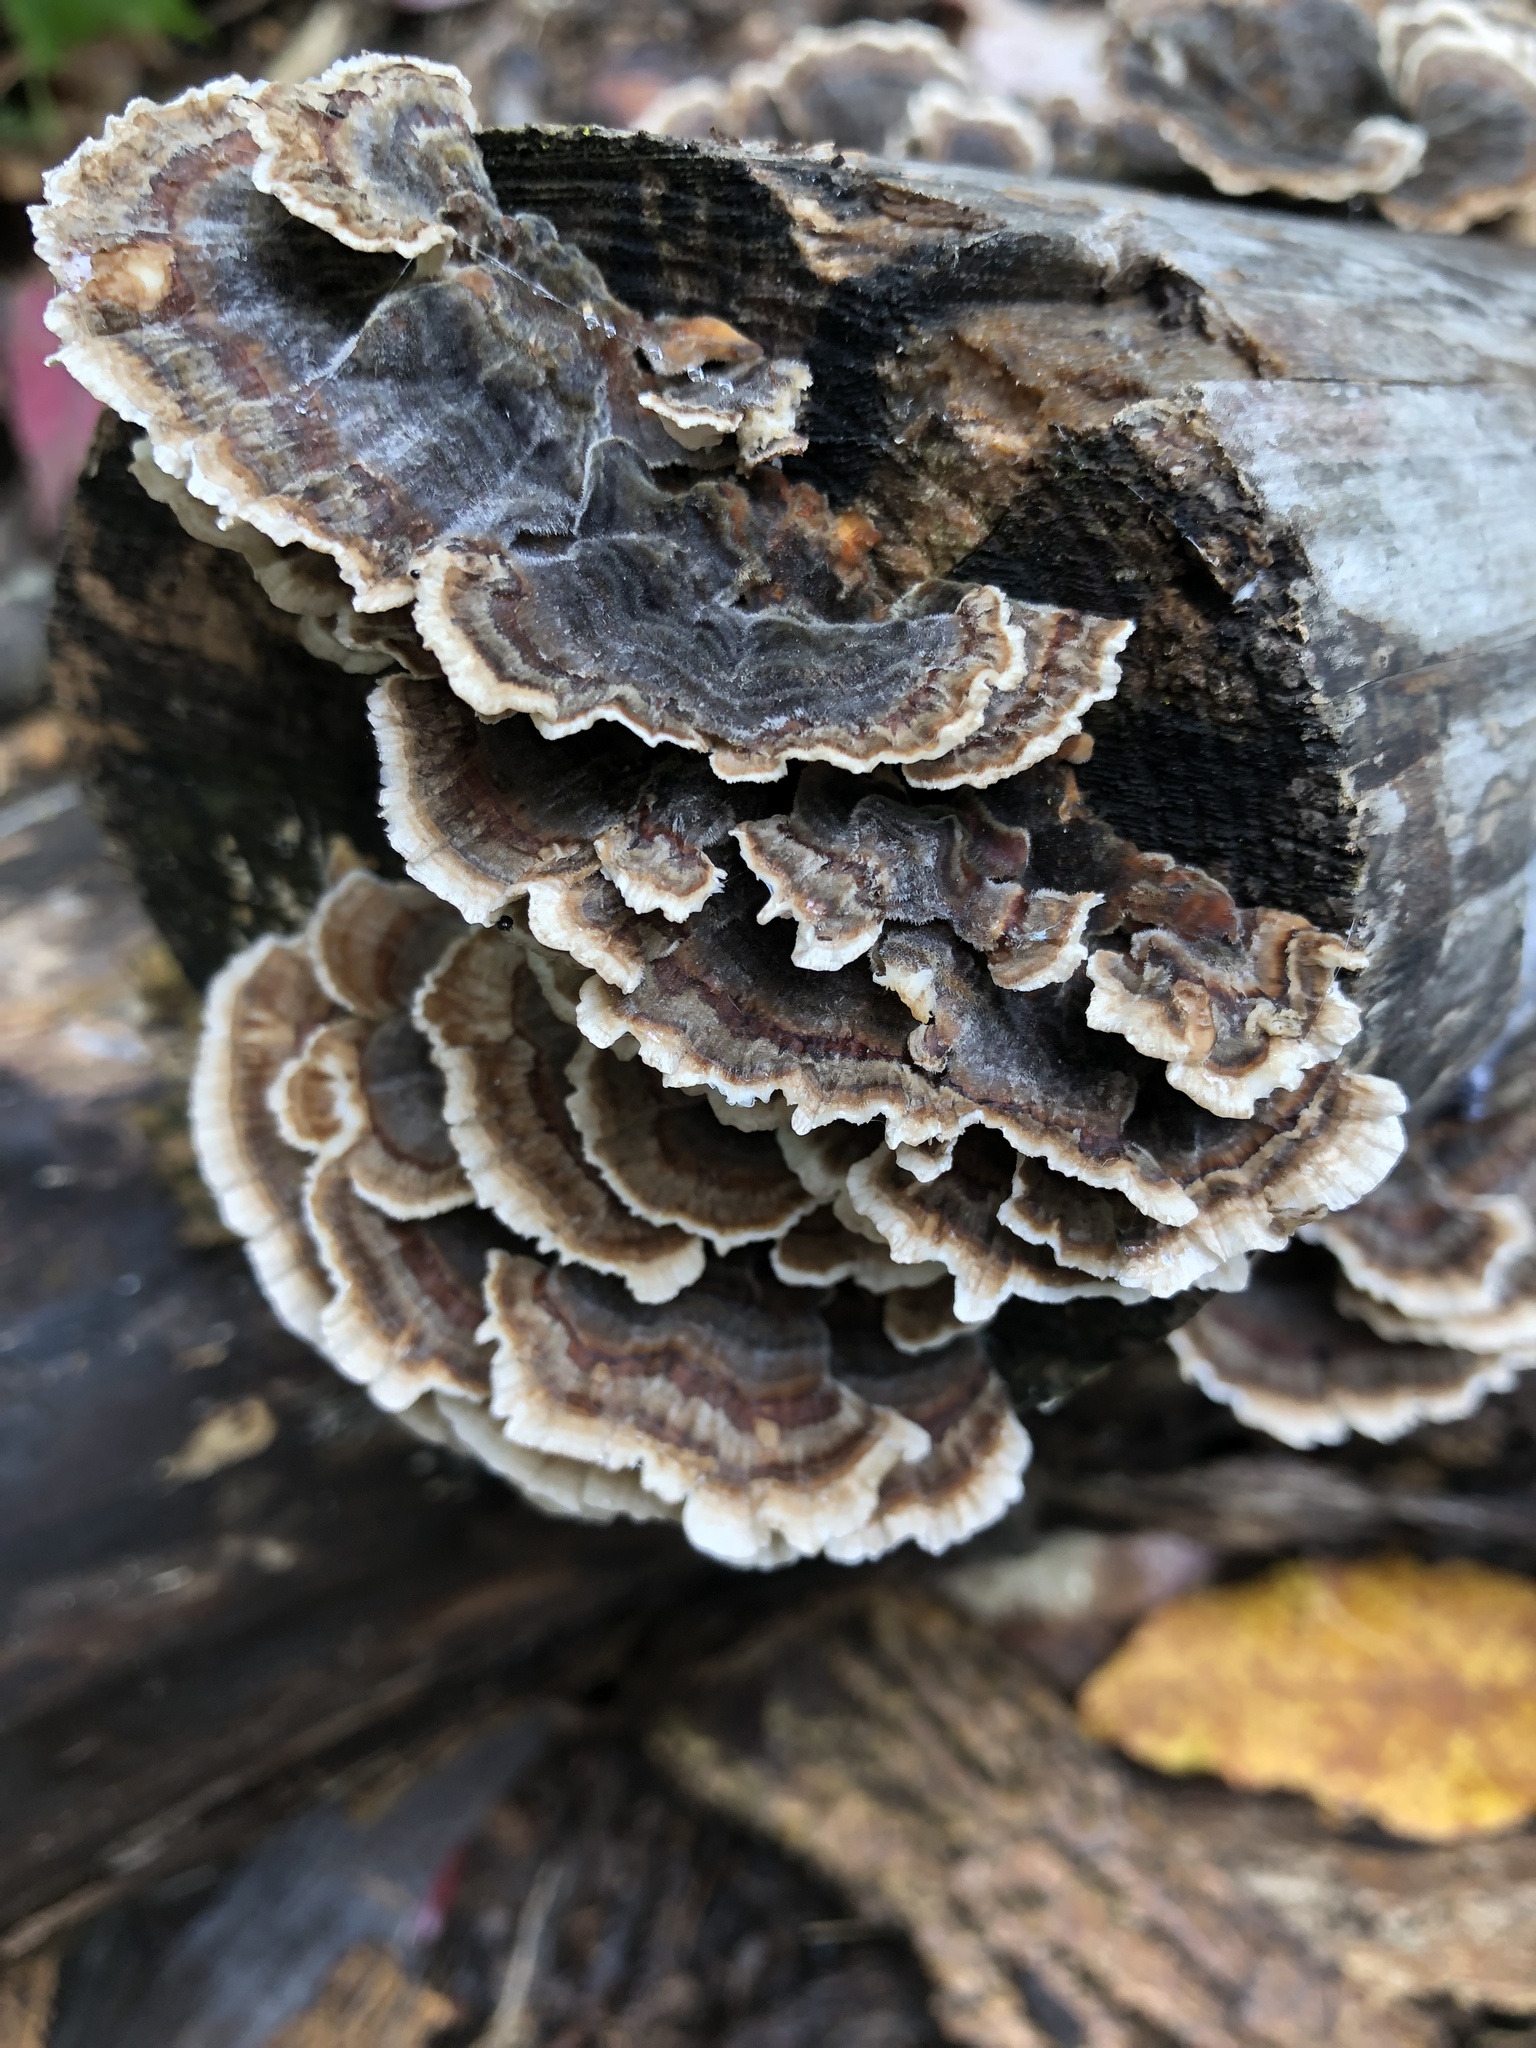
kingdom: Fungi
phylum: Basidiomycota
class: Agaricomycetes
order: Polyporales
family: Polyporaceae
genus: Trametes
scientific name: Trametes versicolor
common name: Turkeytail
